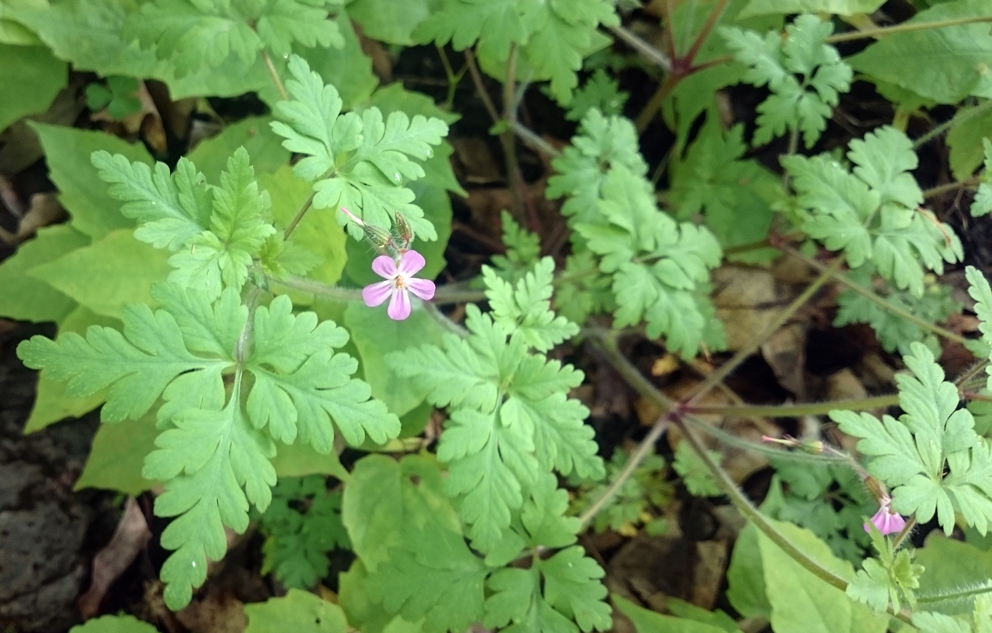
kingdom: Plantae
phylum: Tracheophyta
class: Magnoliopsida
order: Geraniales
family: Geraniaceae
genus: Geranium
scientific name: Geranium robertianum
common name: Herb-robert
